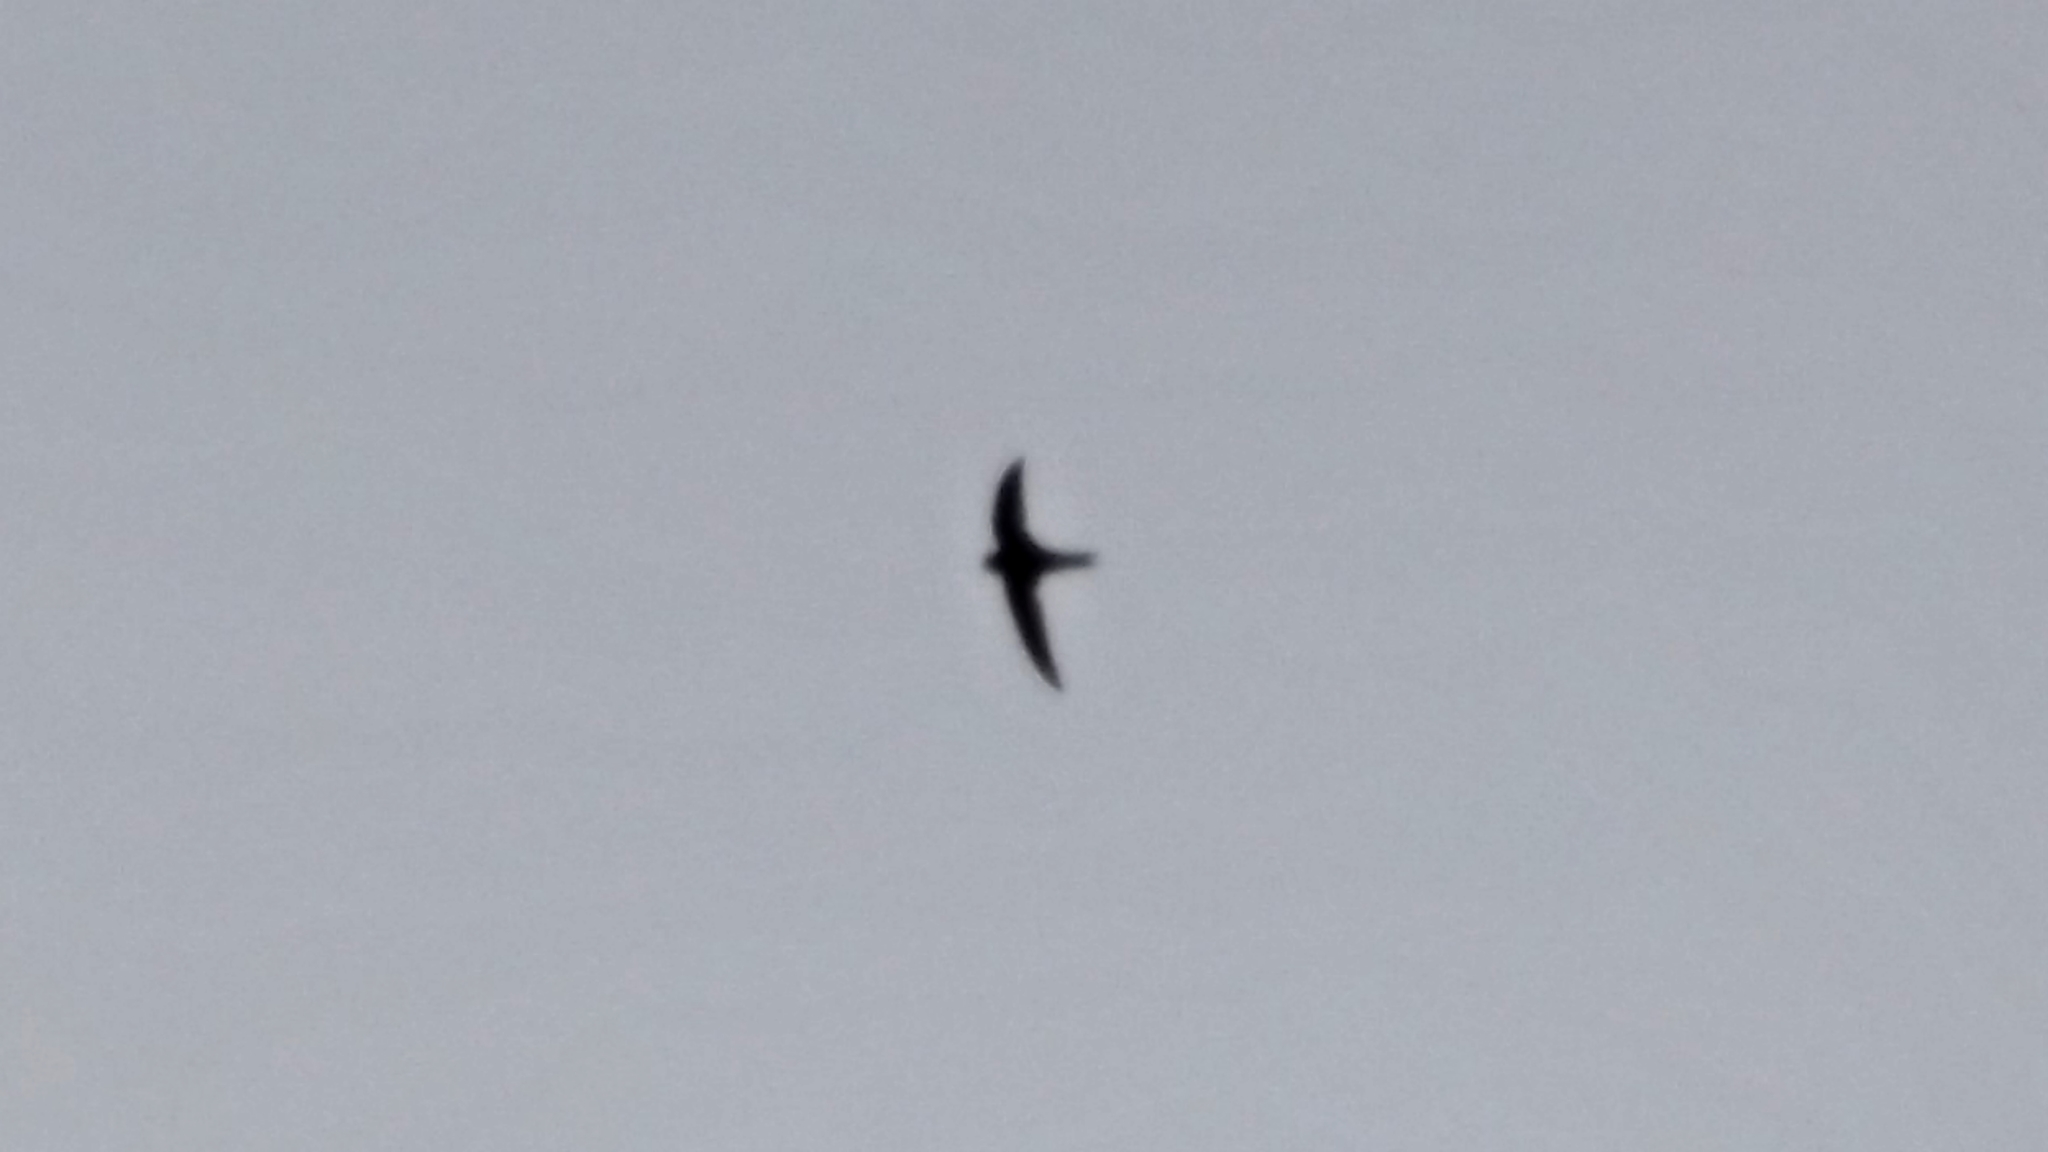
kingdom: Animalia
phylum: Chordata
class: Aves
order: Apodiformes
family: Apodidae
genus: Apus
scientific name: Apus apus
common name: Common swift
